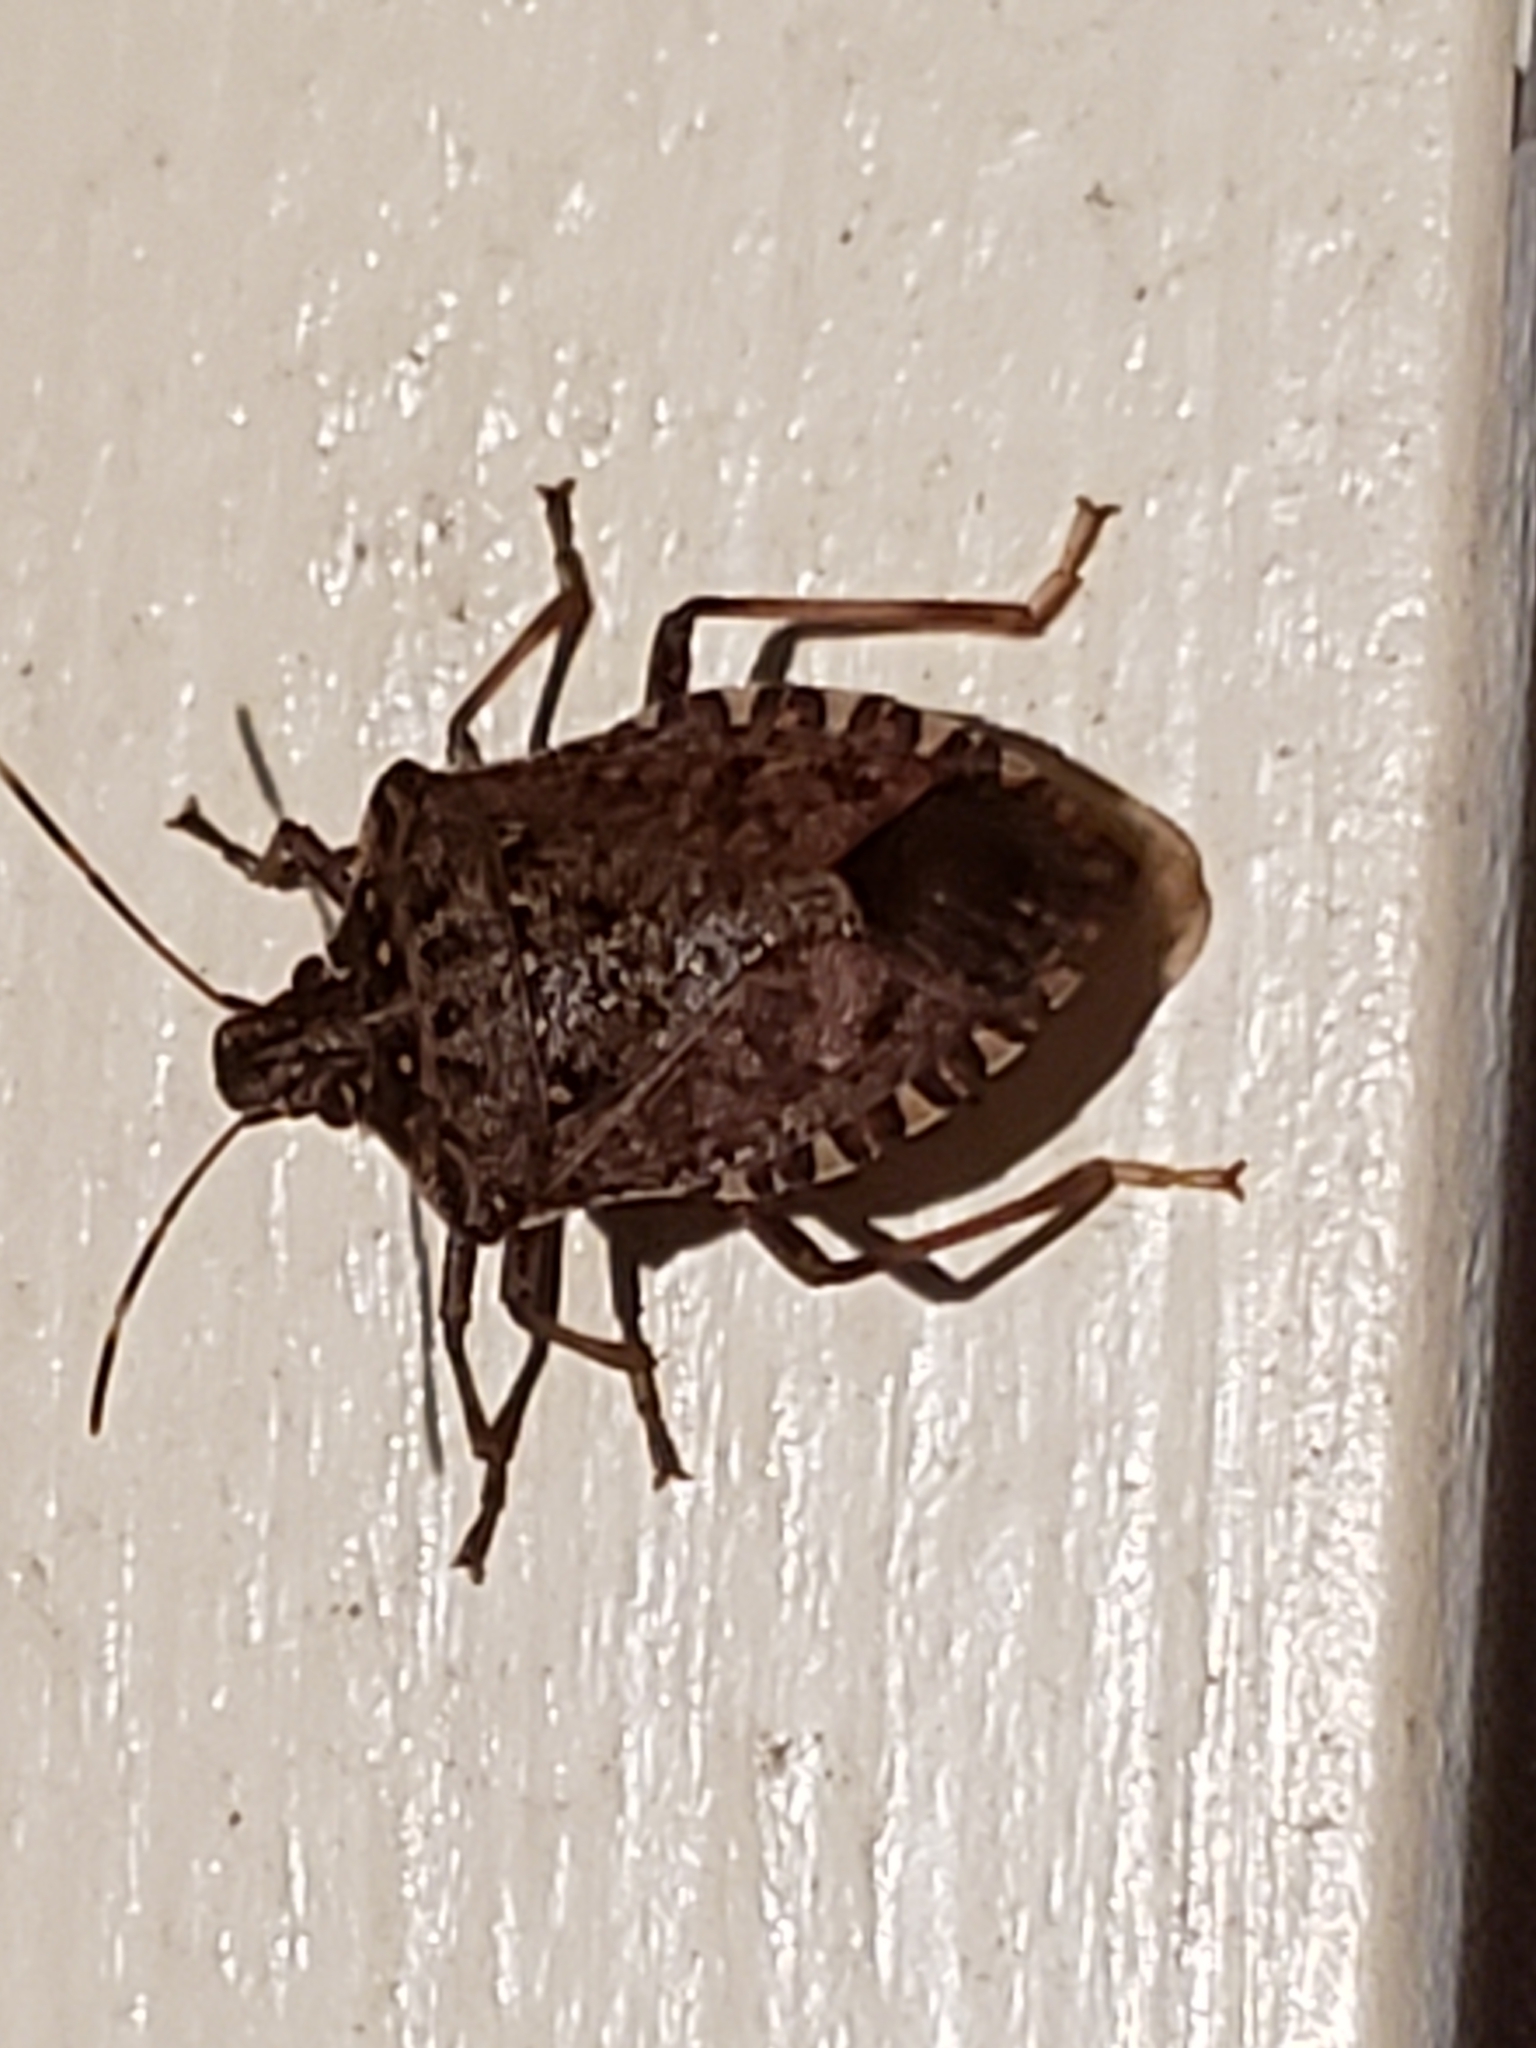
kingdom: Animalia
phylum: Arthropoda
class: Insecta
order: Hemiptera
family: Pentatomidae
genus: Halyomorpha
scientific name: Halyomorpha halys
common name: Brown marmorated stink bug
